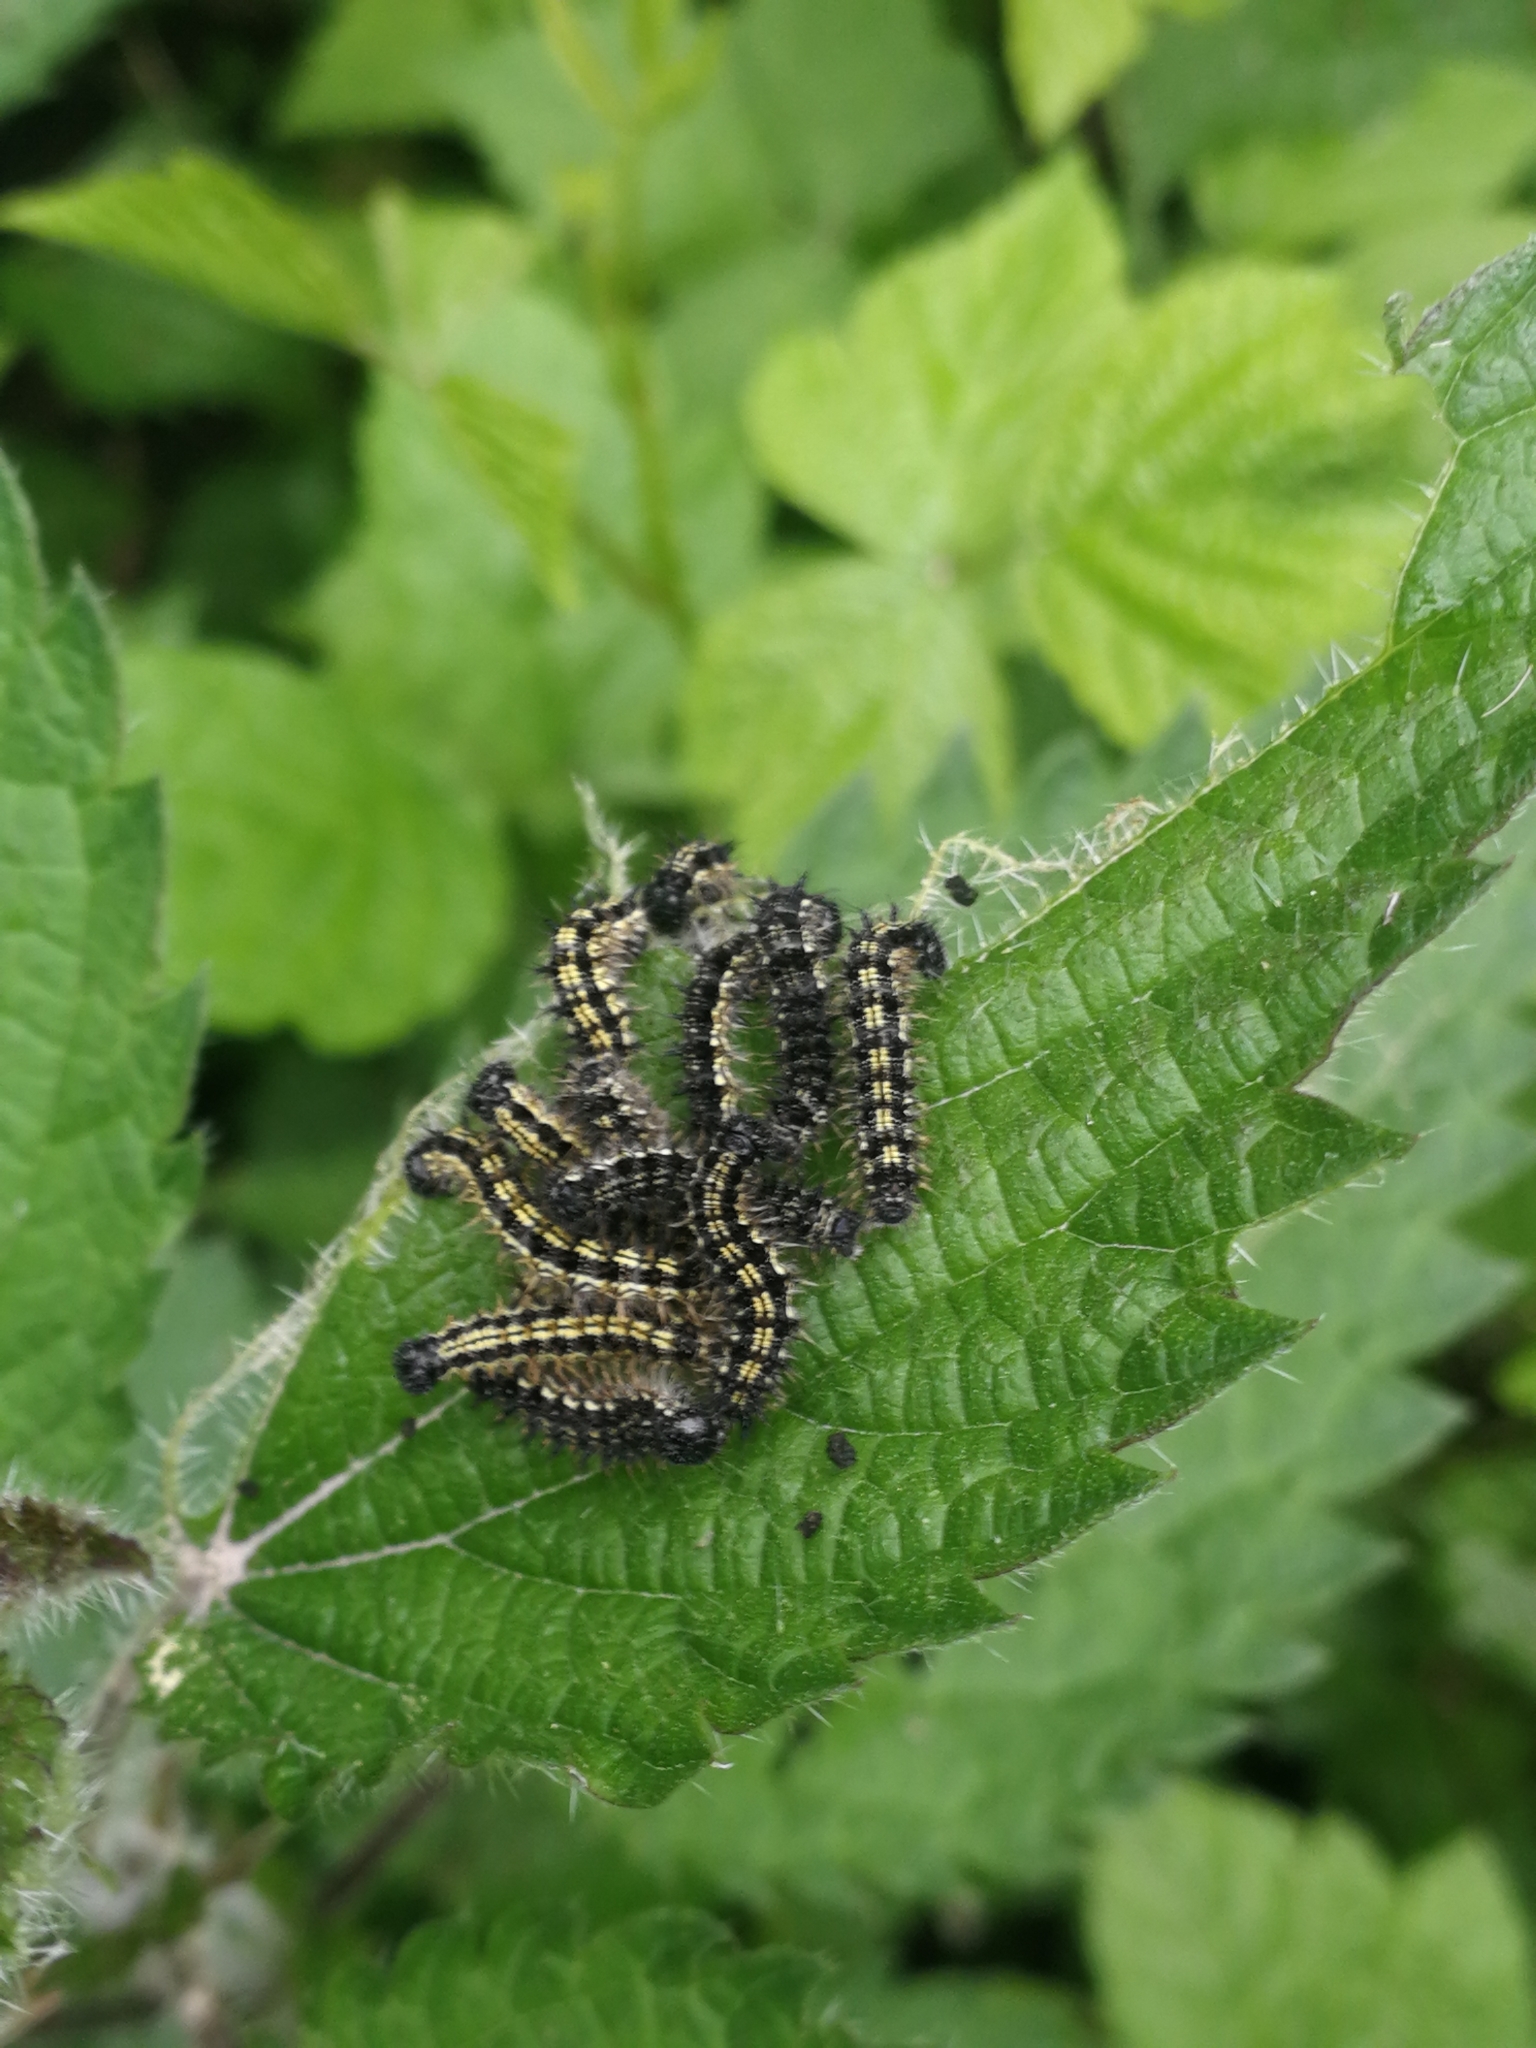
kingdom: Animalia
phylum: Arthropoda
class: Insecta
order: Lepidoptera
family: Nymphalidae
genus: Aglais
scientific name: Aglais urticae
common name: Small tortoiseshell
